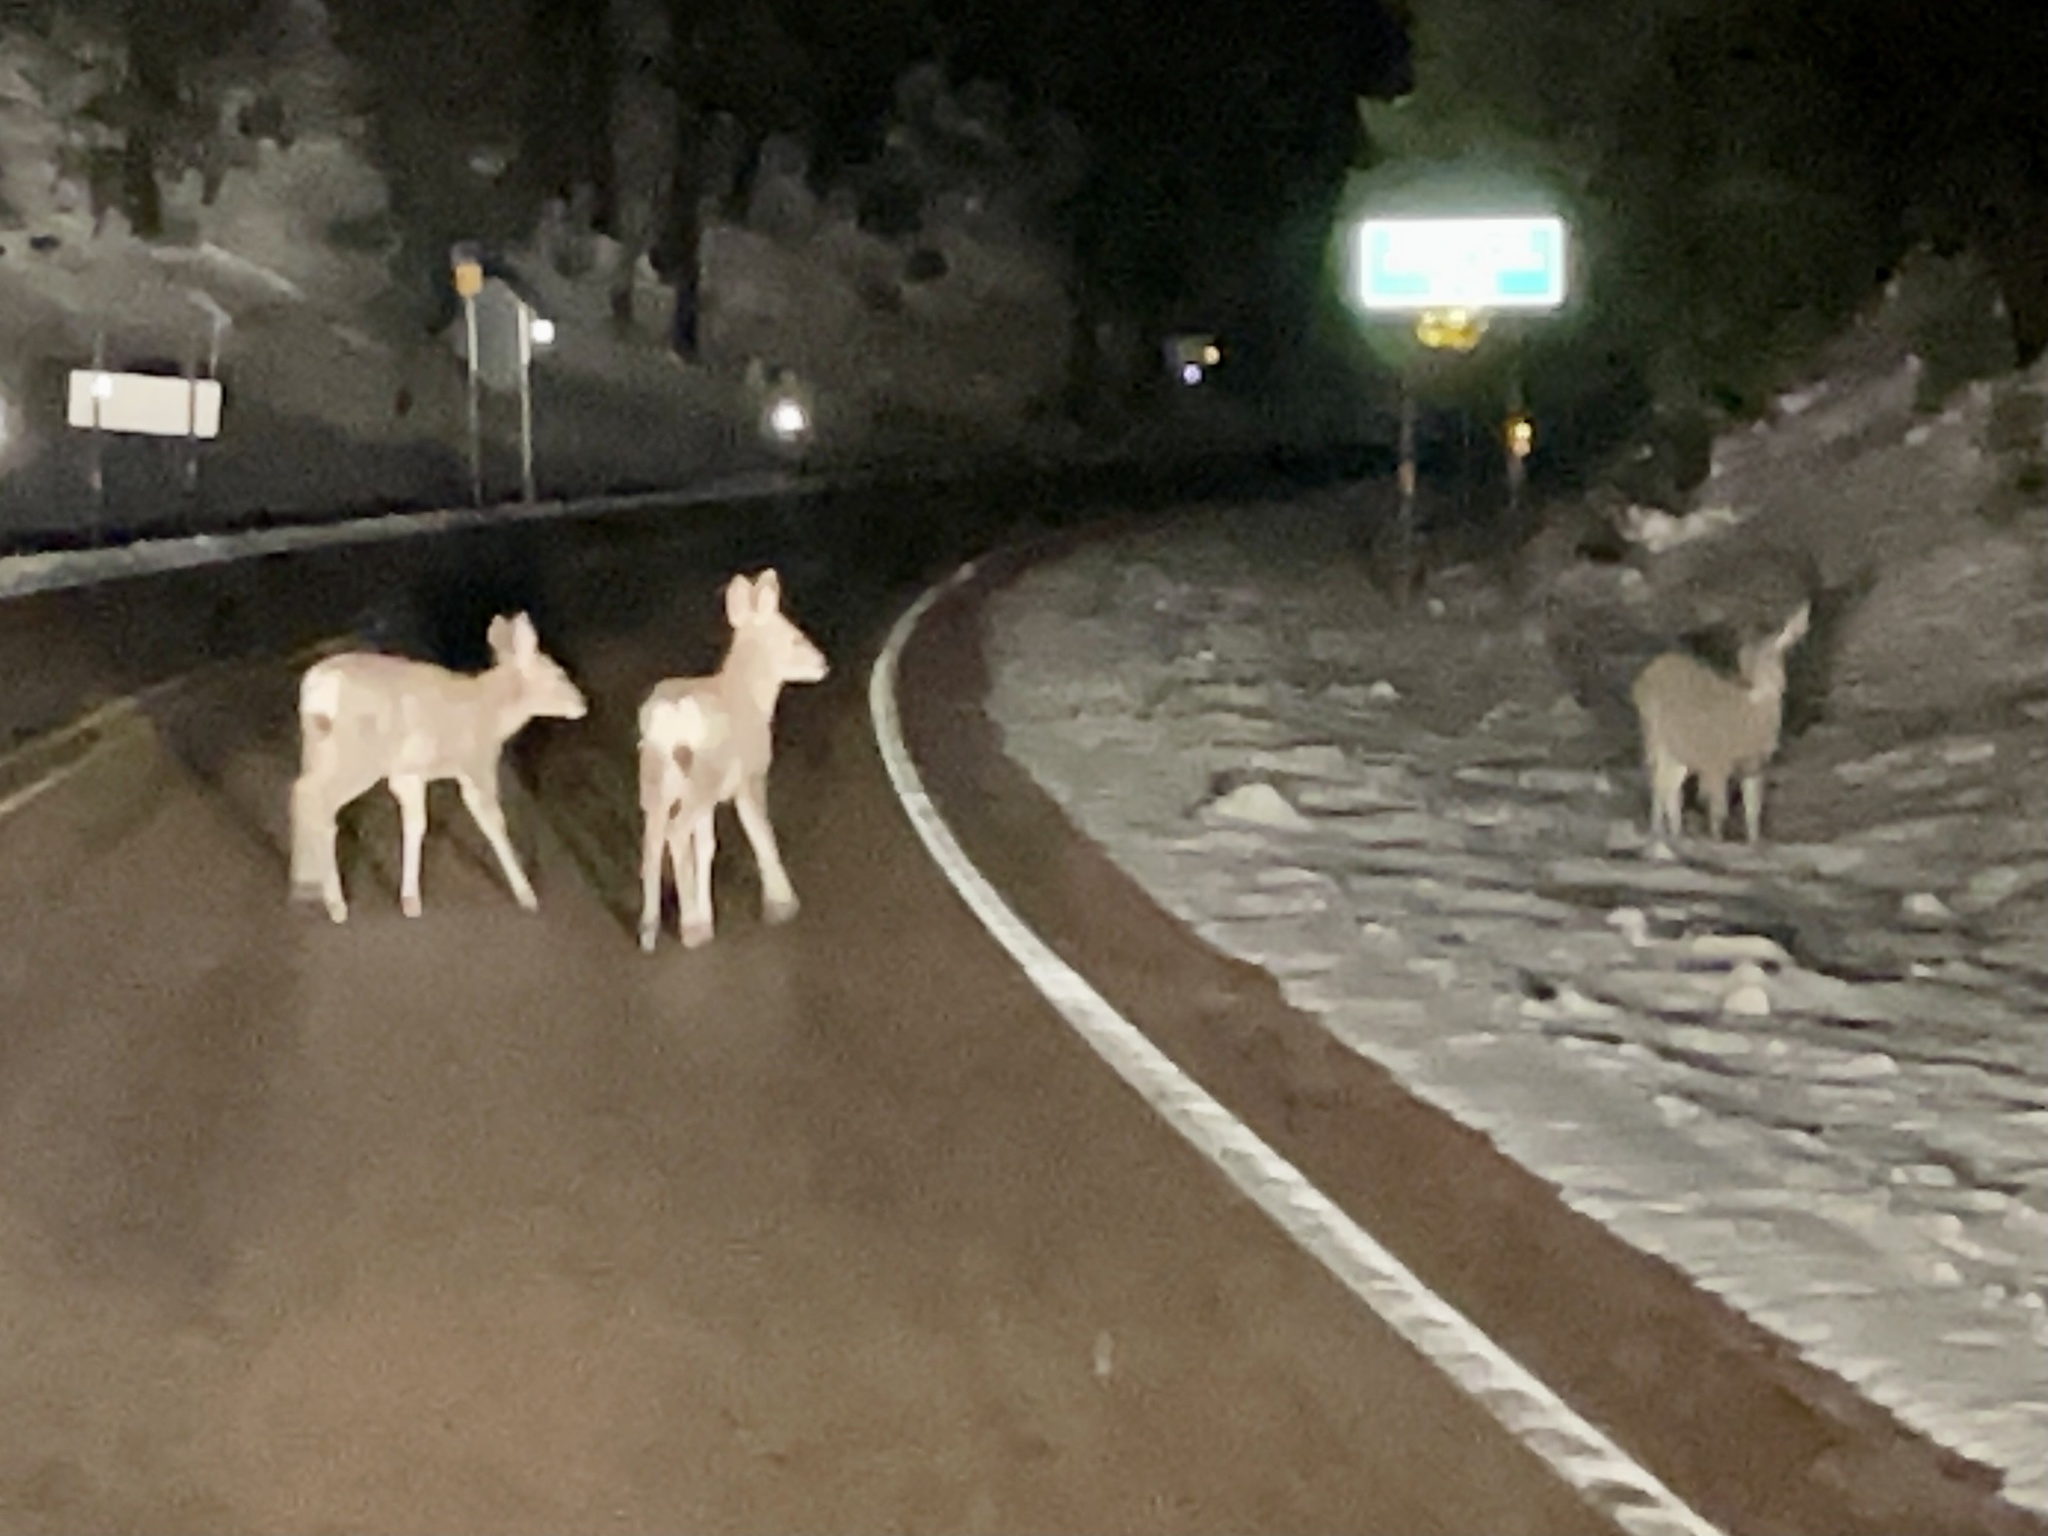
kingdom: Animalia
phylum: Chordata
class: Mammalia
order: Artiodactyla
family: Cervidae
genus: Odocoileus
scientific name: Odocoileus hemionus
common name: Mule deer
